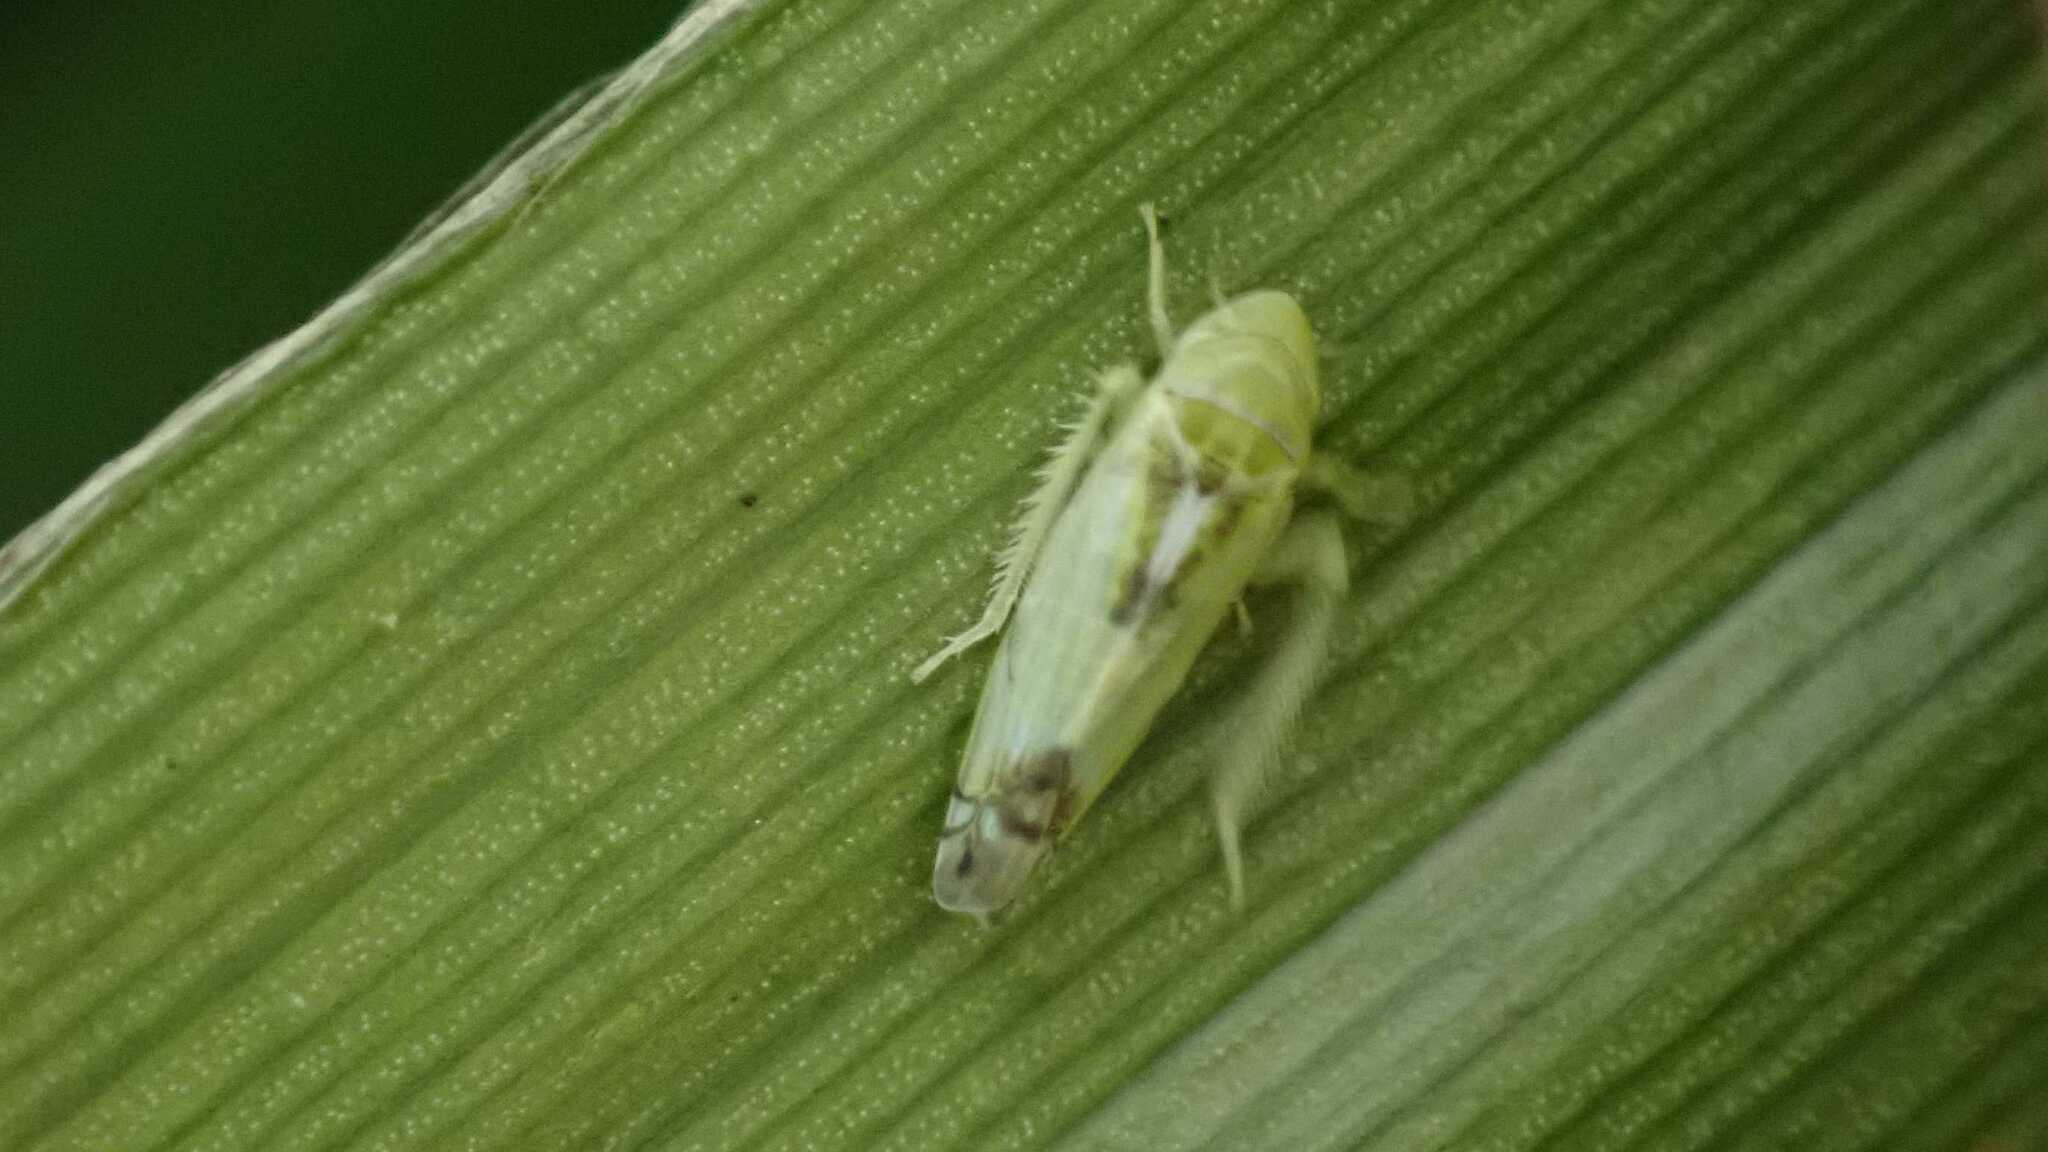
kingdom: Animalia
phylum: Arthropoda
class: Insecta
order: Hemiptera
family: Cicadellidae
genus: Zyginella
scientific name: Zyginella pulchra
